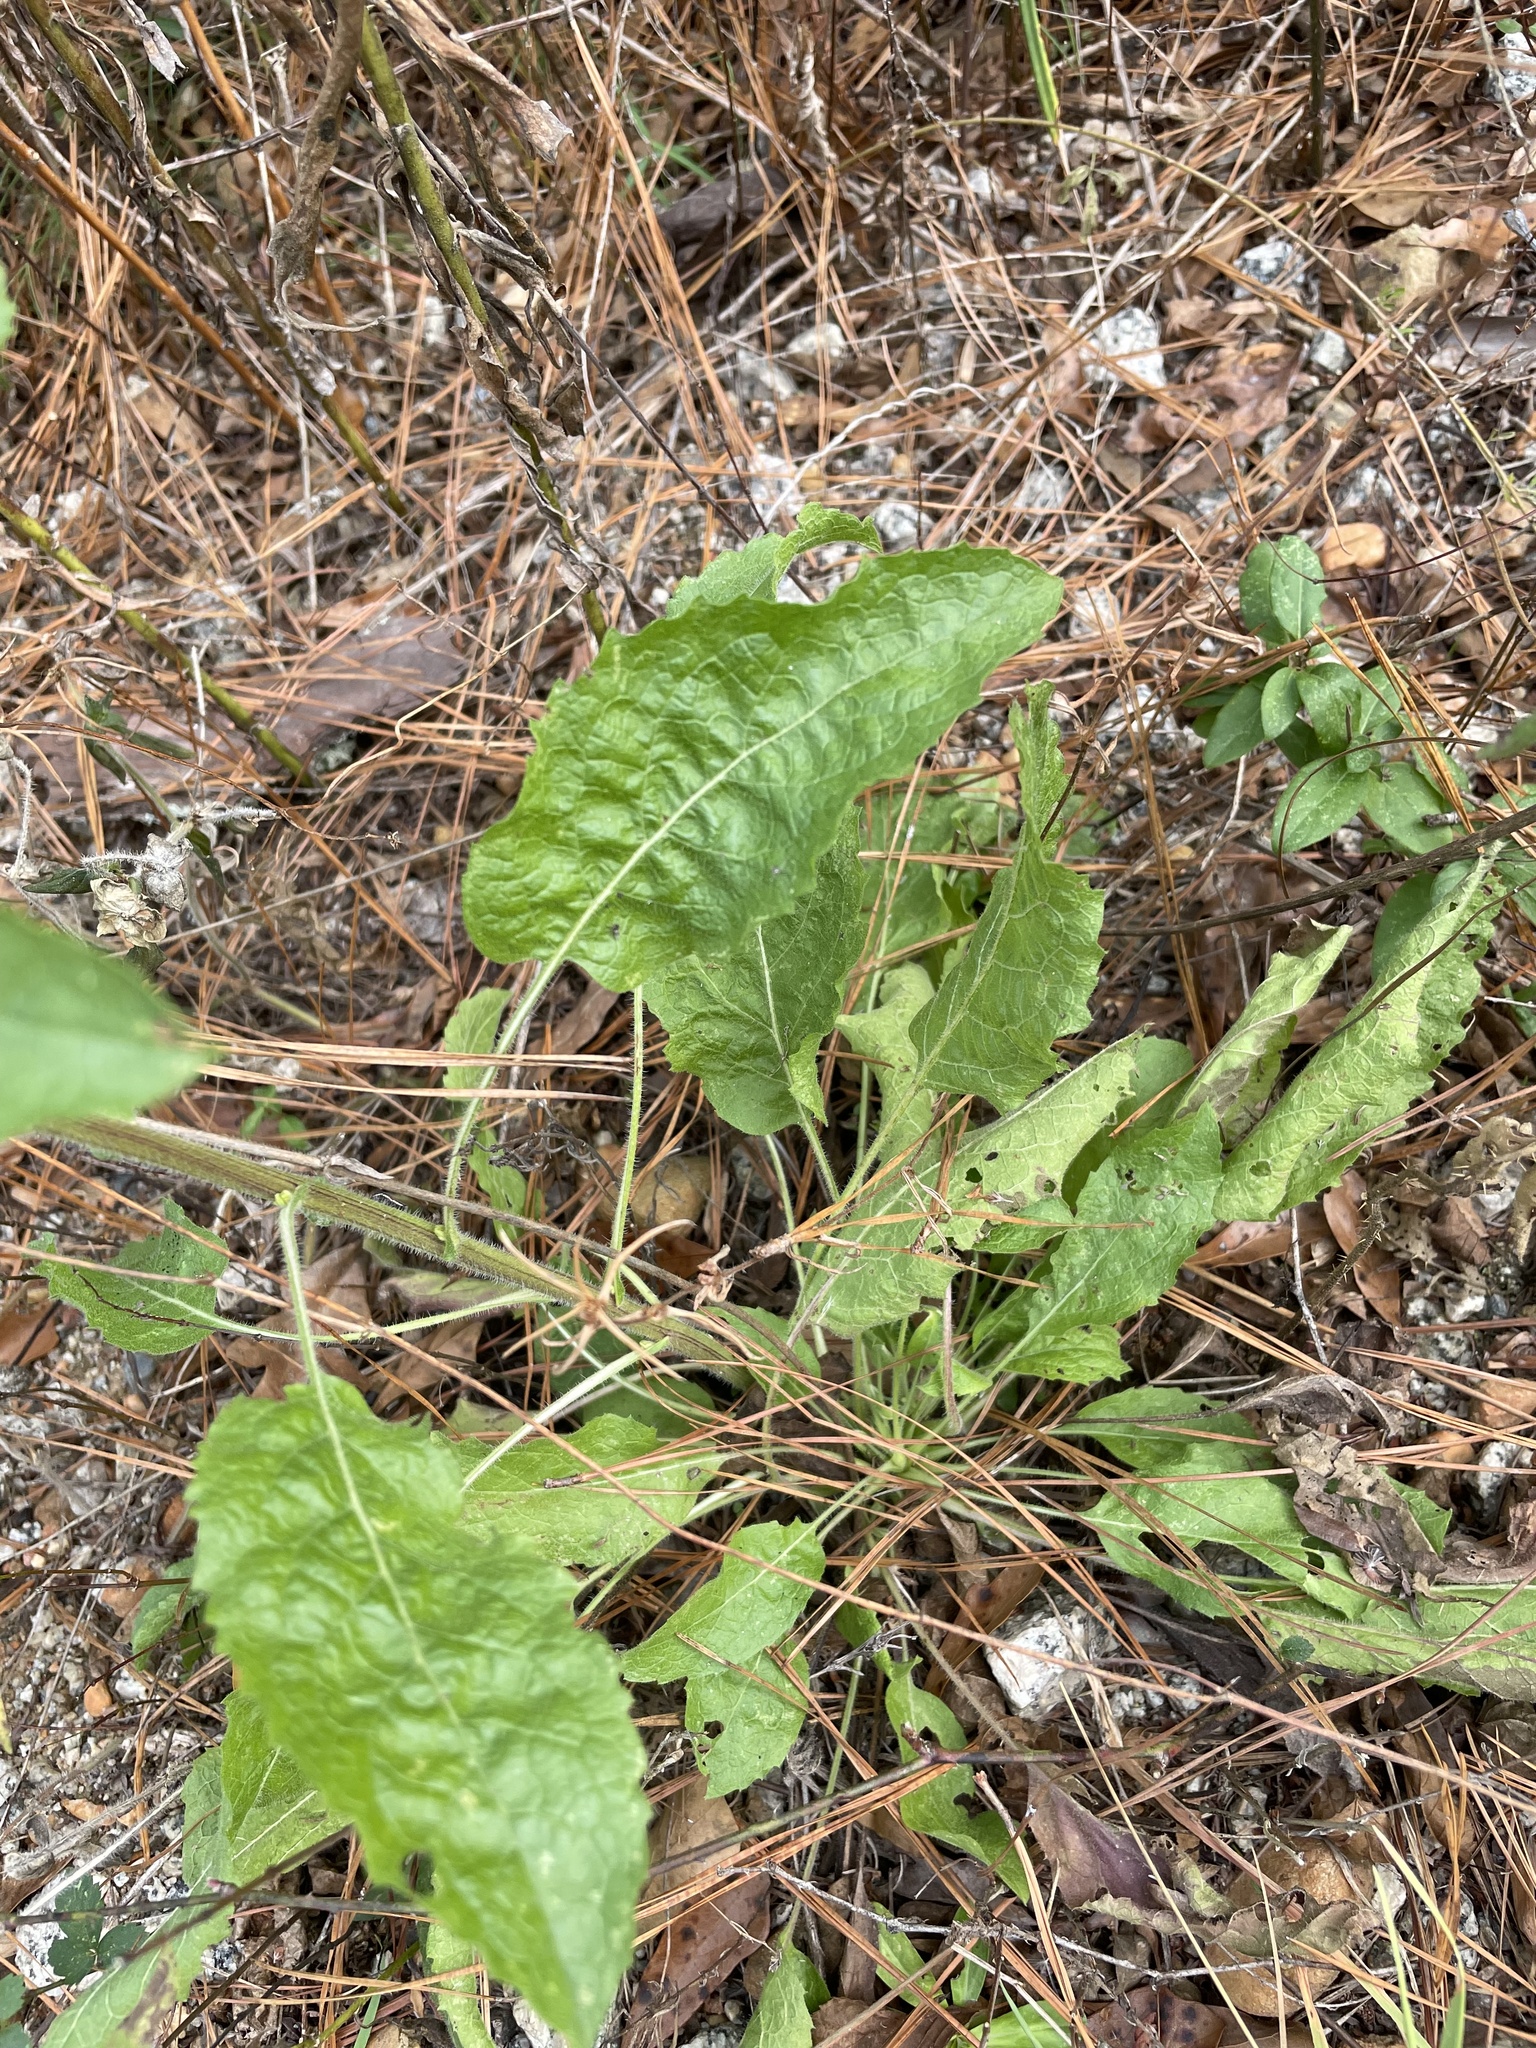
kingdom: Plantae
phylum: Tracheophyta
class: Magnoliopsida
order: Asterales
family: Asteraceae
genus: Heterotheca
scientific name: Heterotheca subaxillaris
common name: Camphorweed
